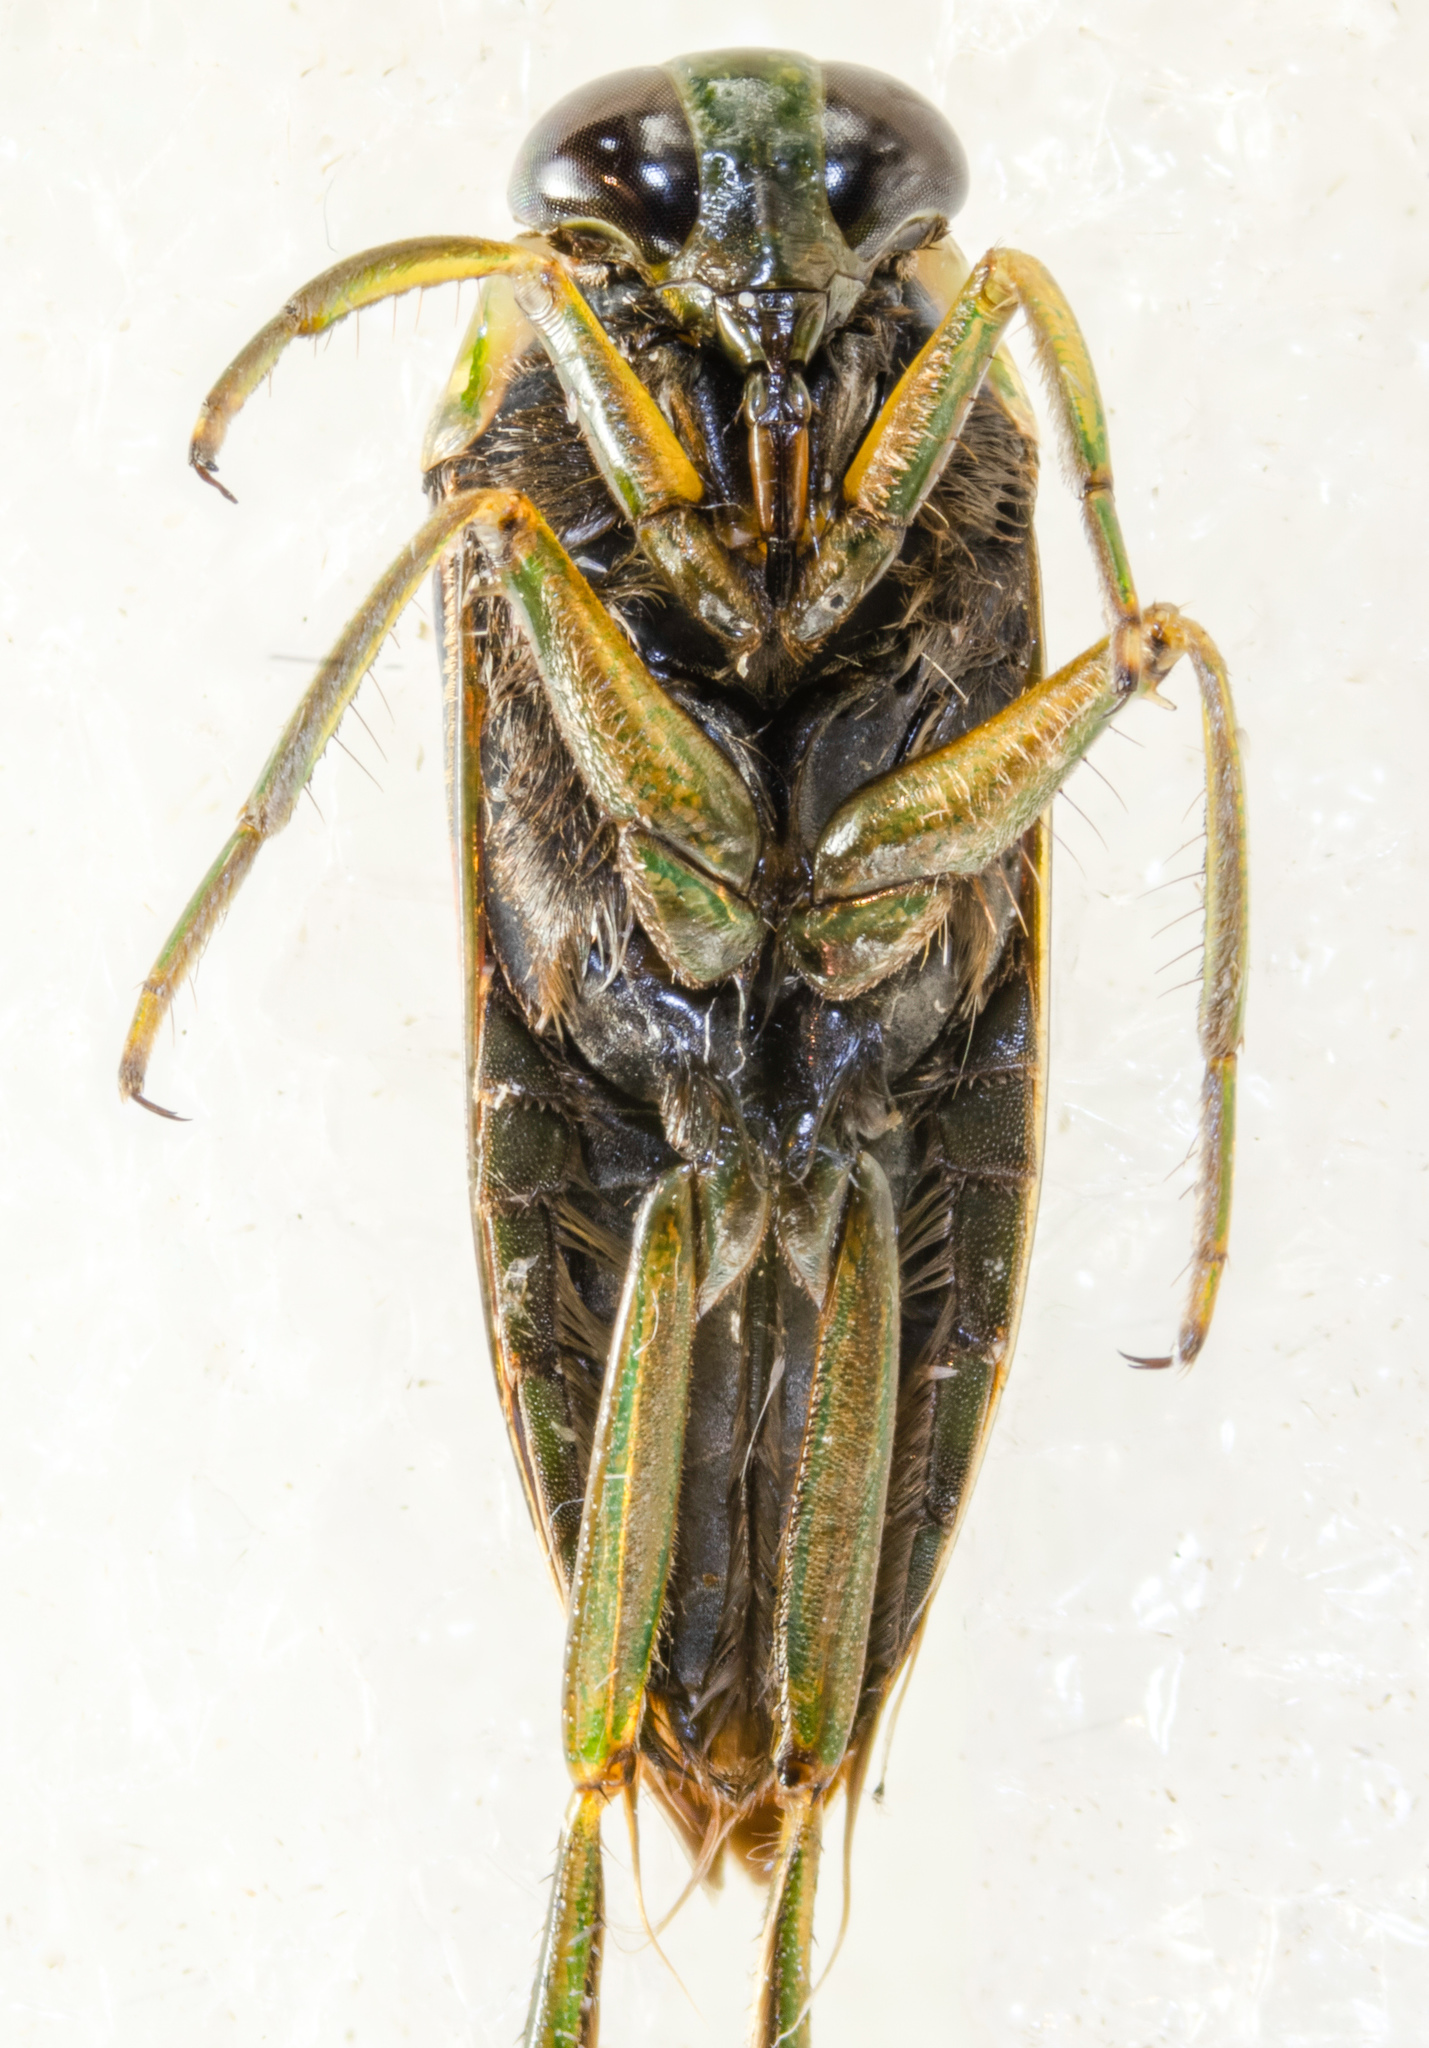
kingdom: Animalia
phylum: Arthropoda
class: Insecta
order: Hemiptera
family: Notonectidae
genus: Notonecta
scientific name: Notonecta kirbyi
